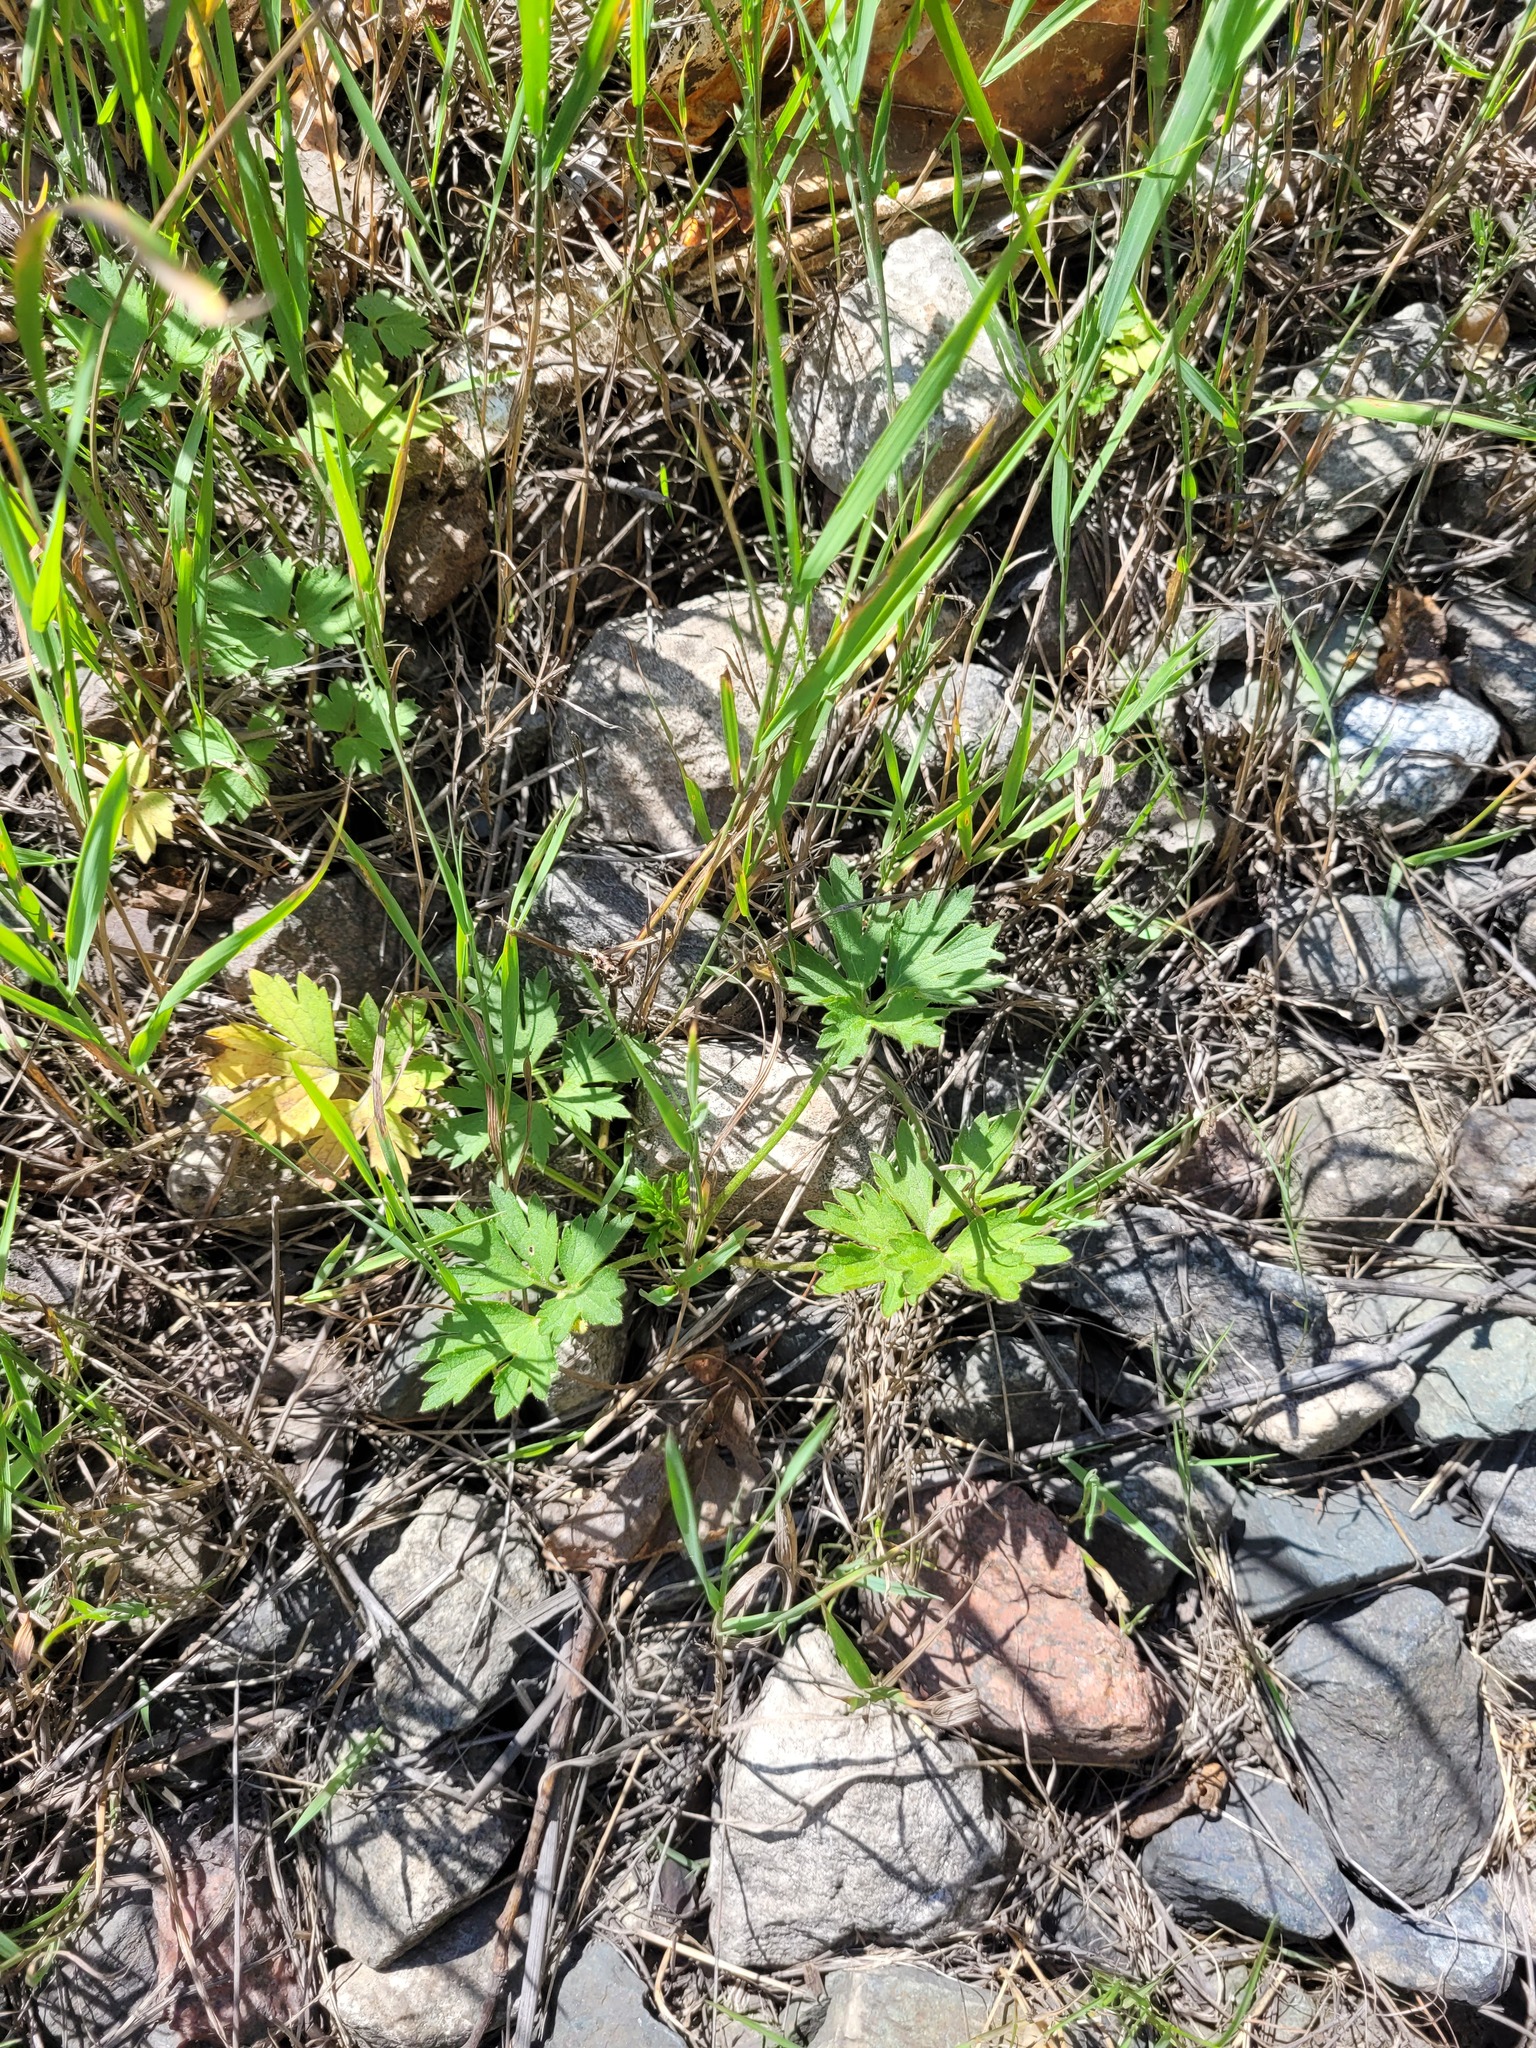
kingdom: Plantae
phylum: Tracheophyta
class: Magnoliopsida
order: Ranunculales
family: Ranunculaceae
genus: Ranunculus
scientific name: Ranunculus repens
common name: Creeping buttercup
